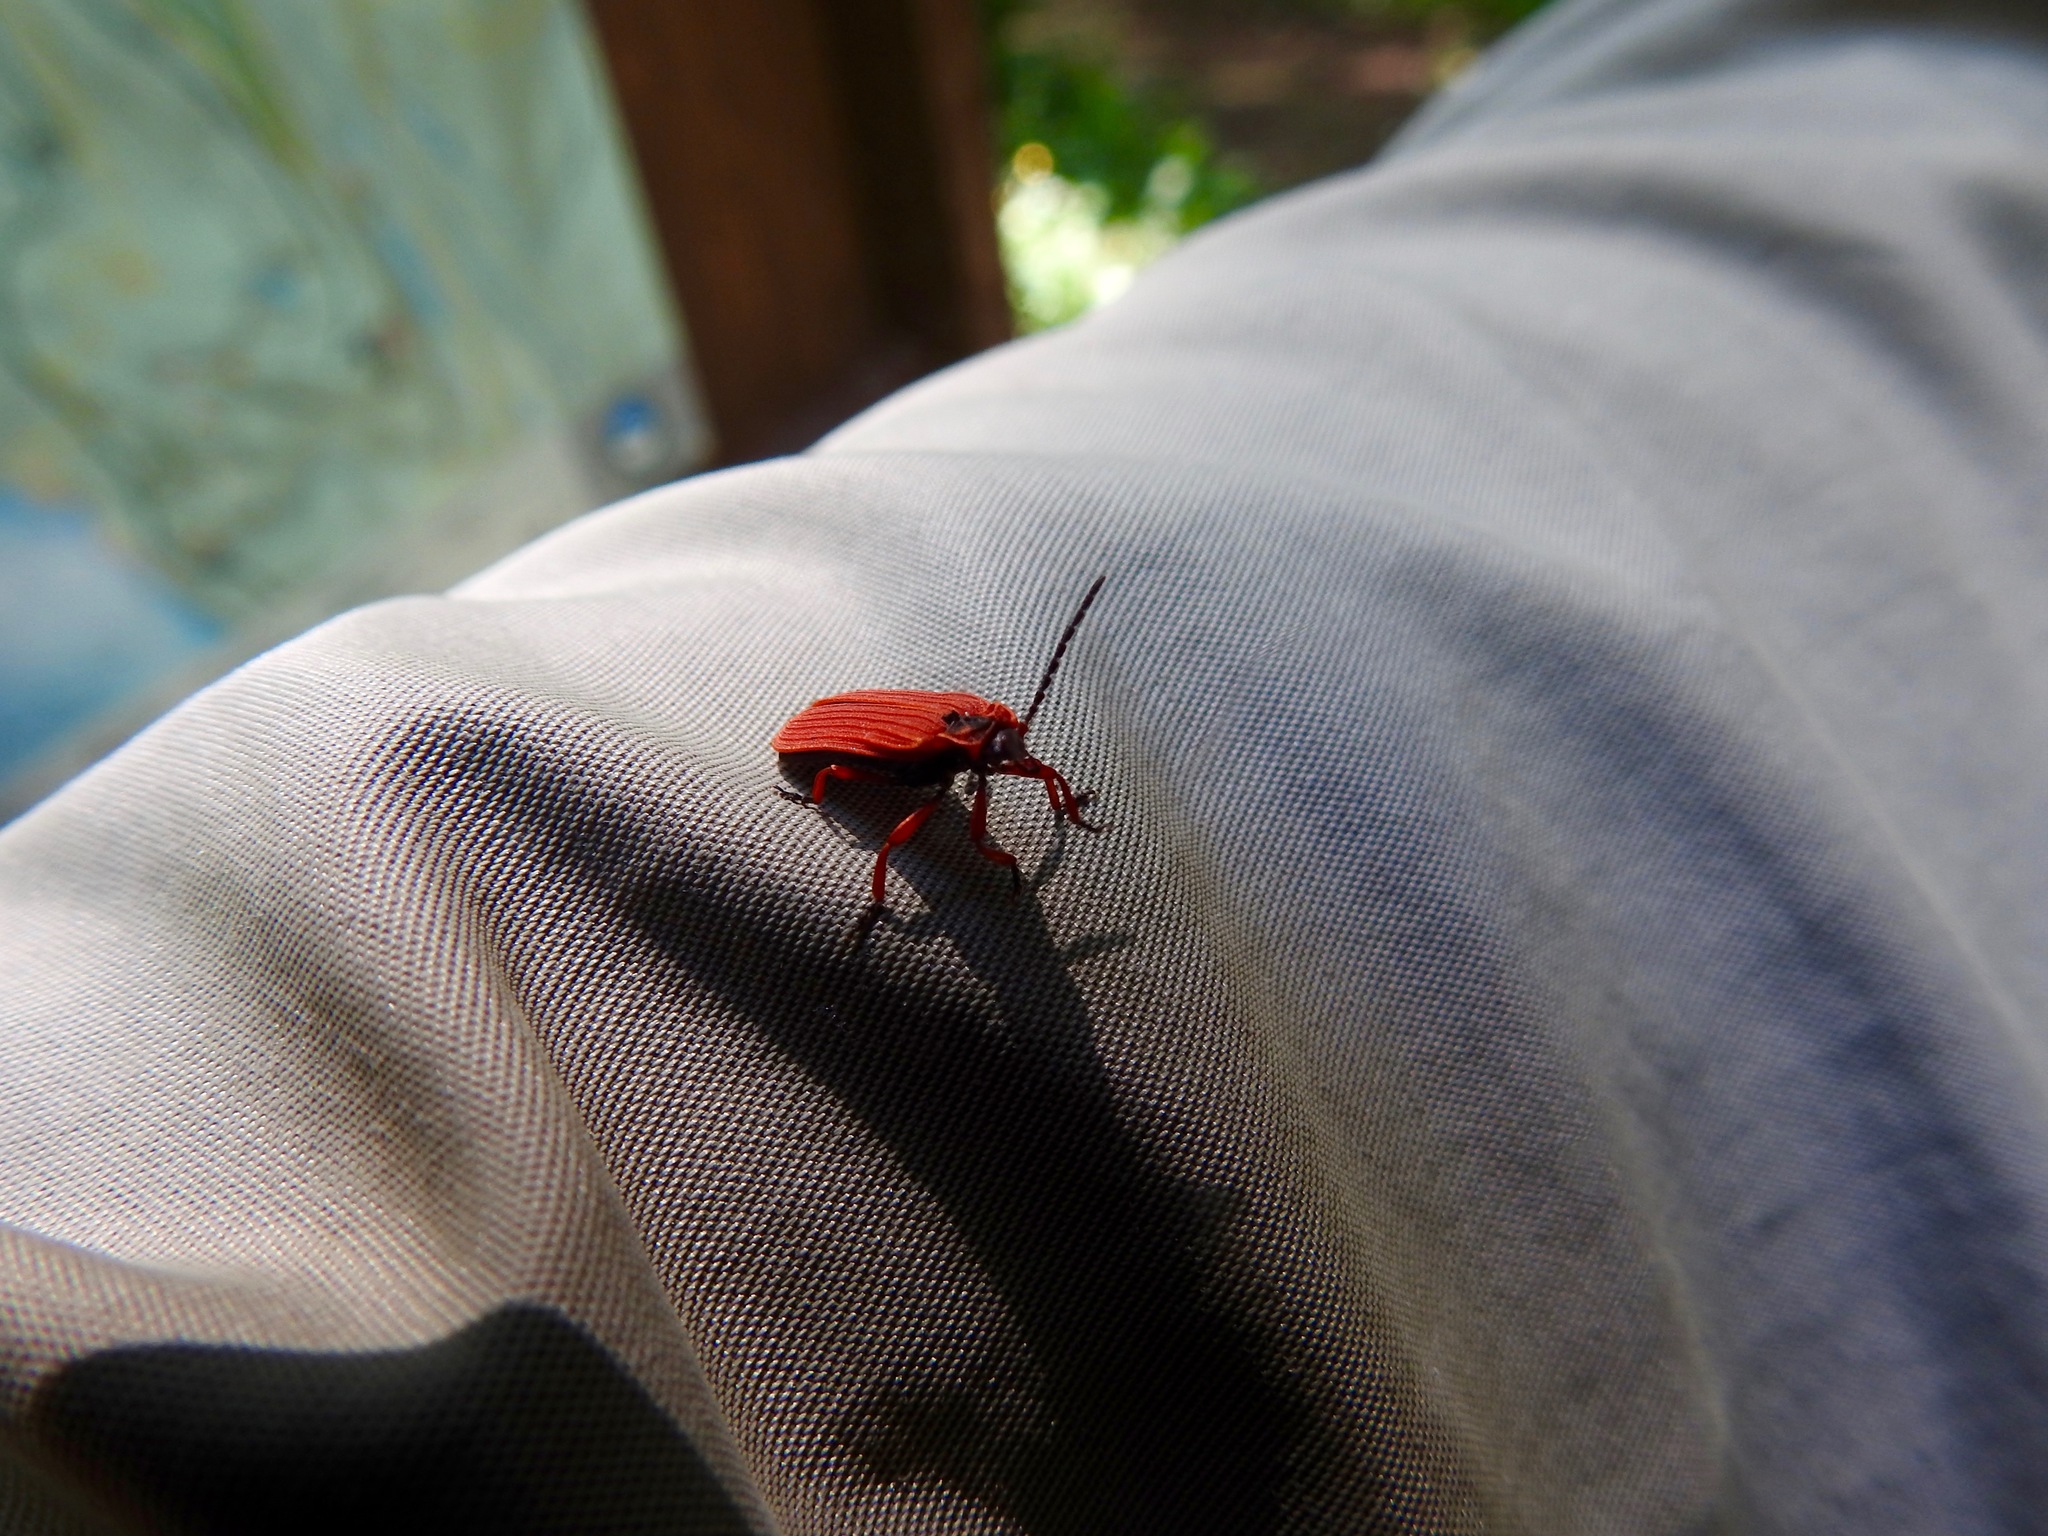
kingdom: Animalia
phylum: Arthropoda
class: Insecta
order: Coleoptera
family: Lycidae
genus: Dictyoptera
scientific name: Dictyoptera simplicipes
